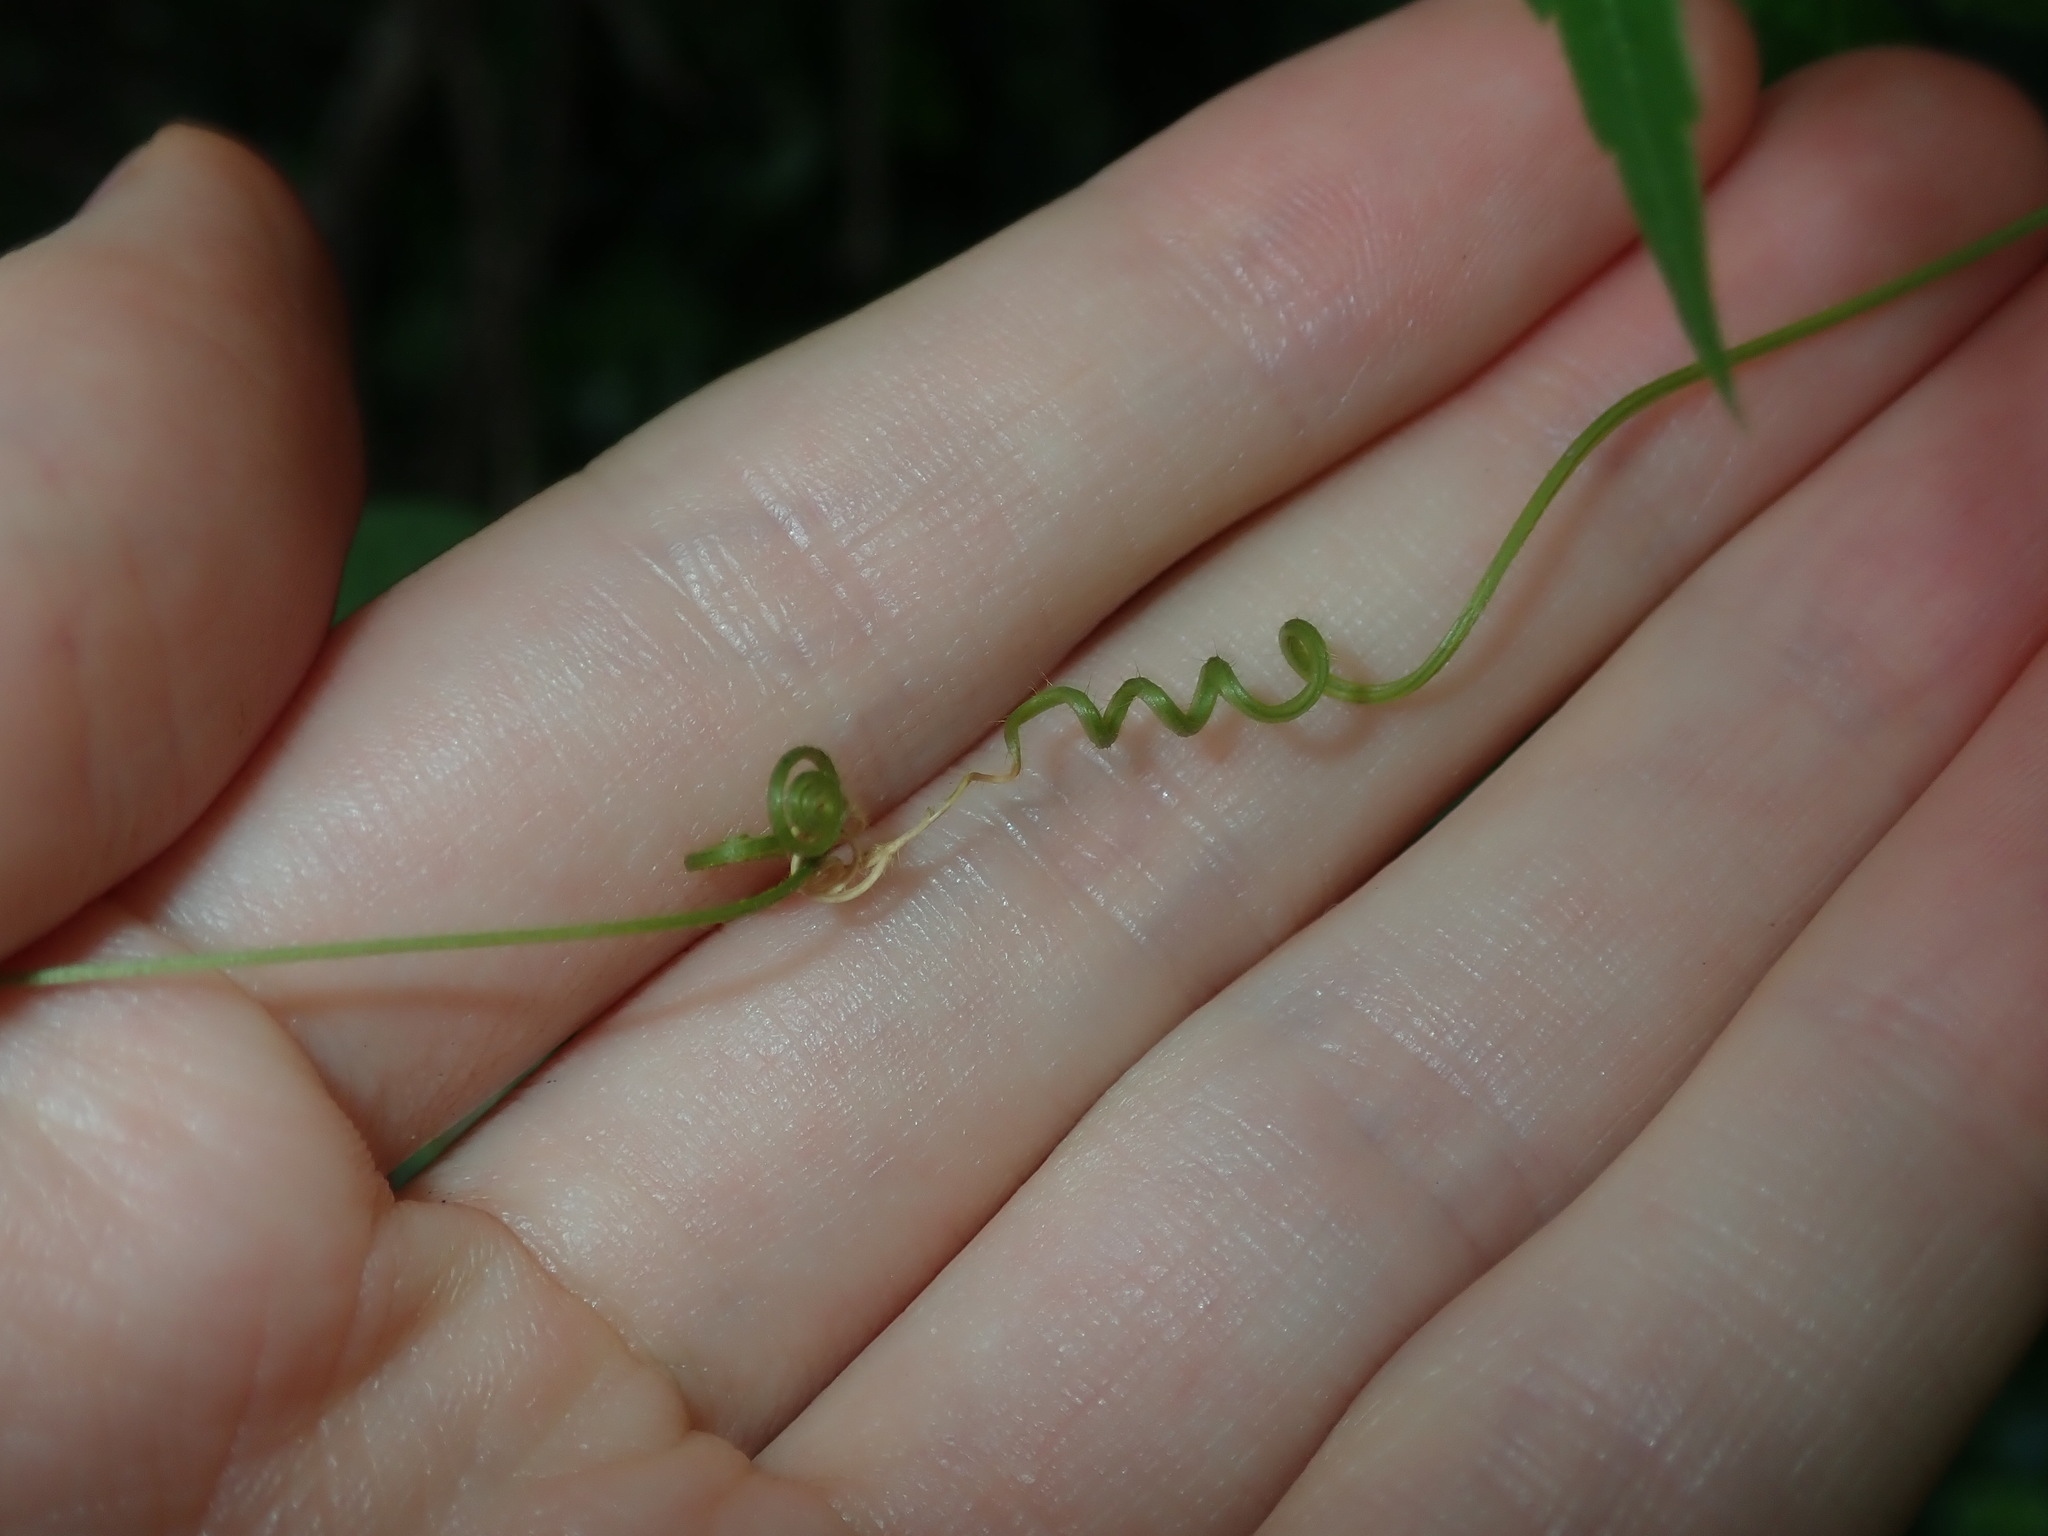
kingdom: Plantae
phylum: Tracheophyta
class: Magnoliopsida
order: Sapindales
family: Sapindaceae
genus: Cardiospermum
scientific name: Cardiospermum grandiflorum
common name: Balloon vine
